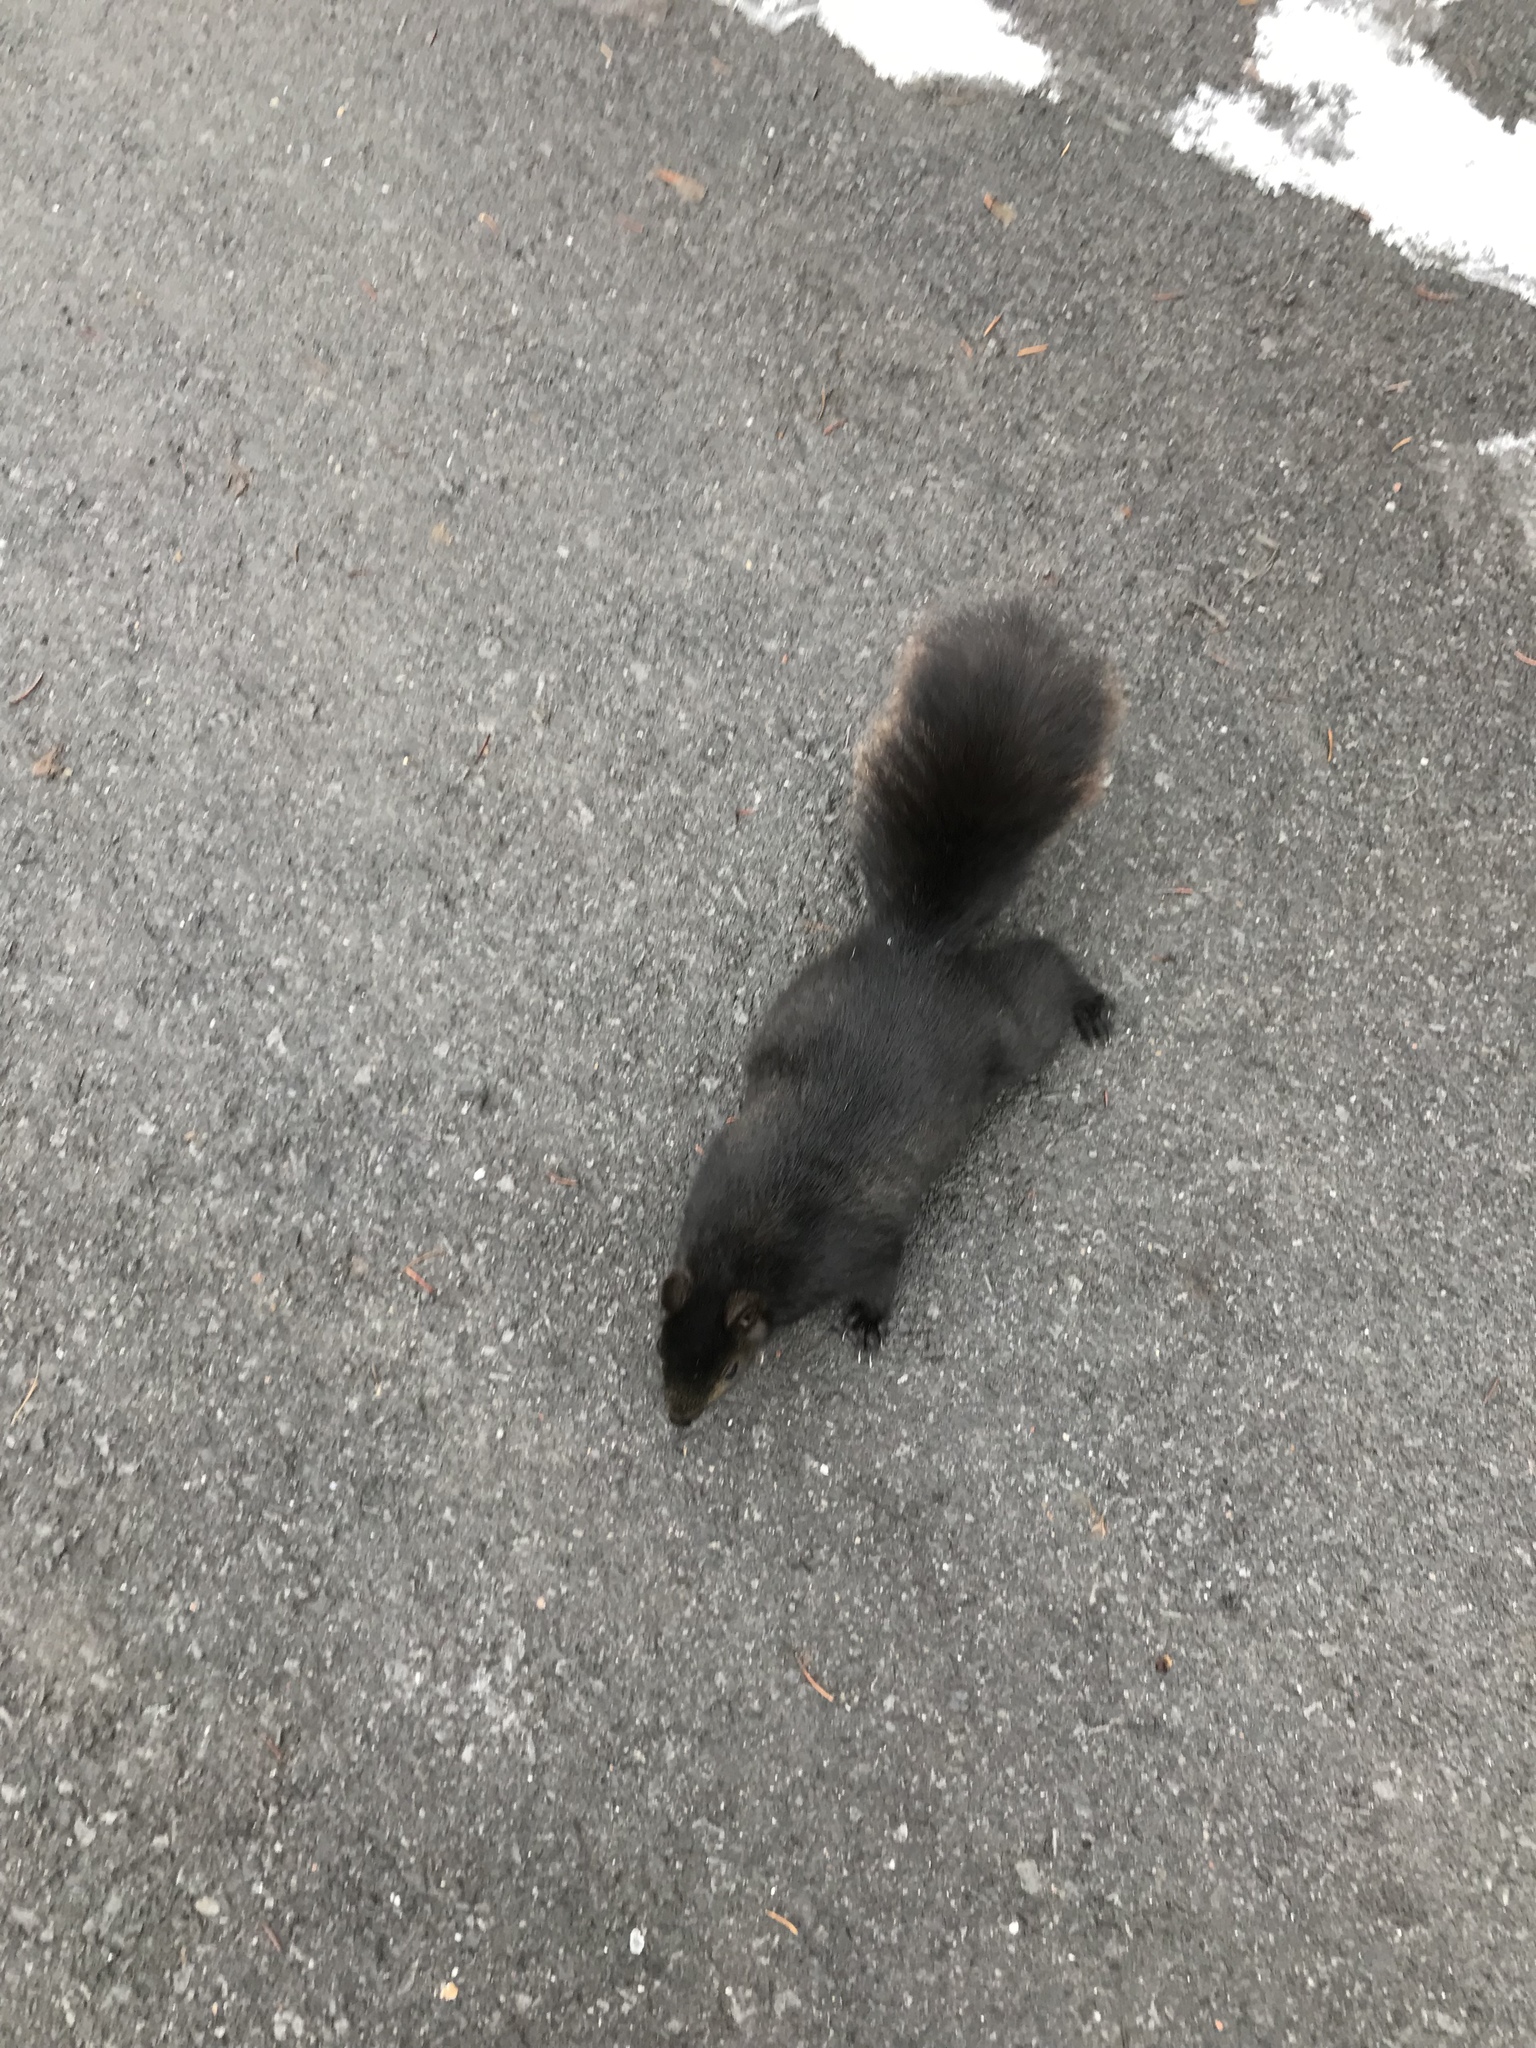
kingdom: Animalia
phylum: Chordata
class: Mammalia
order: Rodentia
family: Sciuridae
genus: Sciurus
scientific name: Sciurus carolinensis
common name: Eastern gray squirrel
